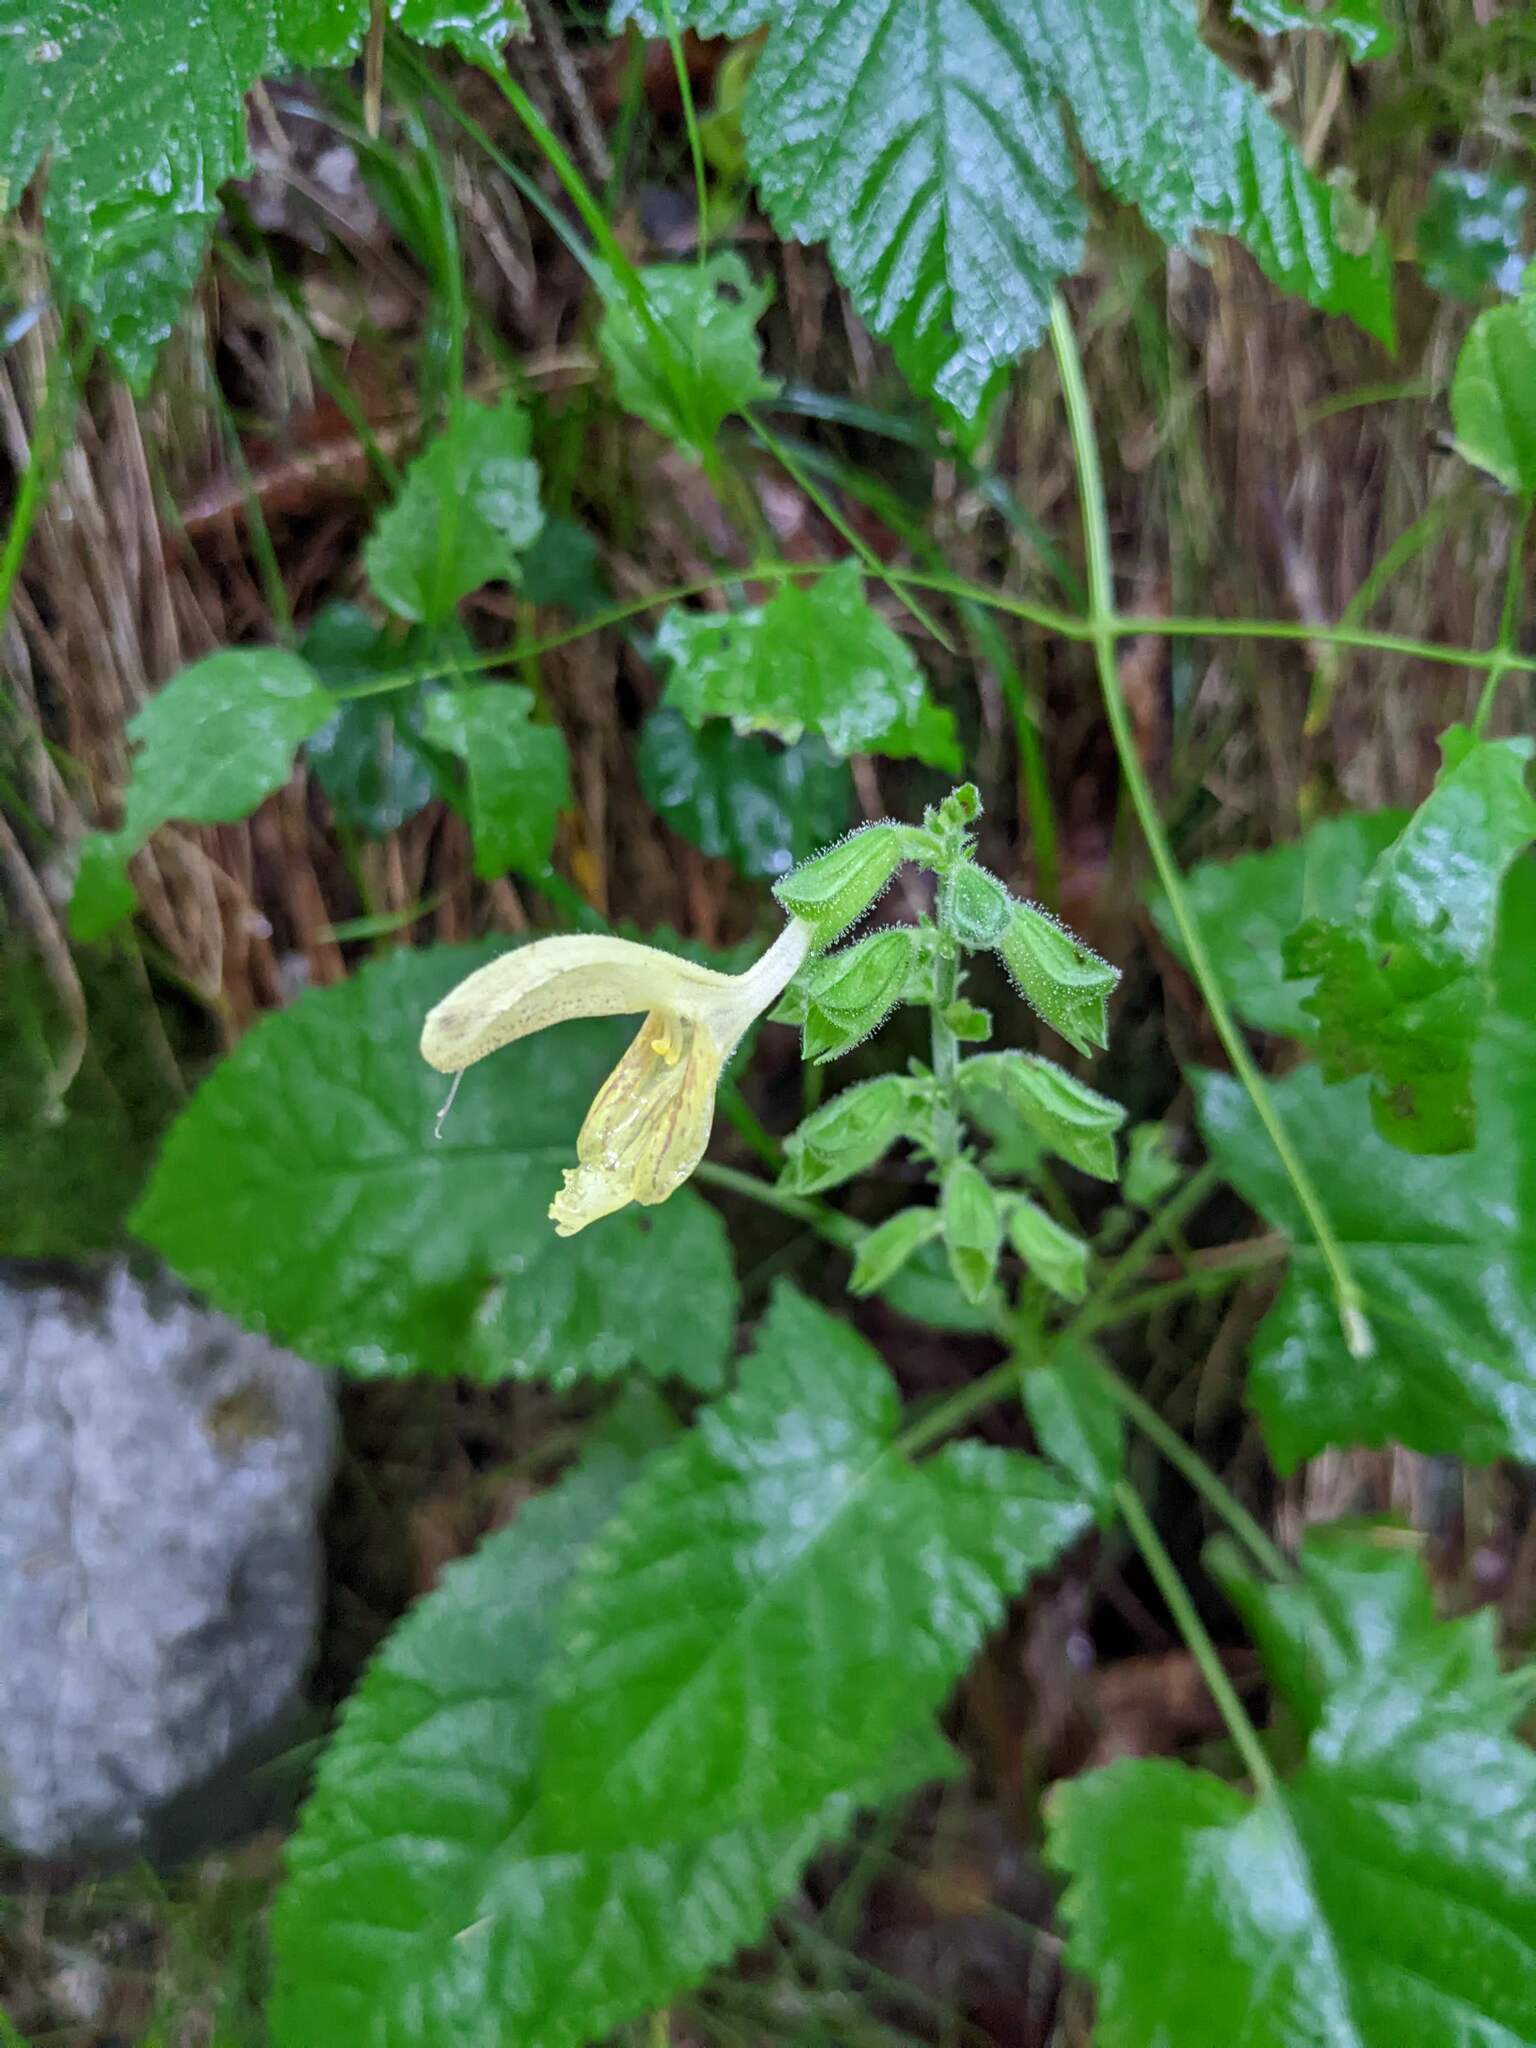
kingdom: Plantae
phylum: Tracheophyta
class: Magnoliopsida
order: Lamiales
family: Lamiaceae
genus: Salvia
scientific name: Salvia glutinosa
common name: Sticky clary
